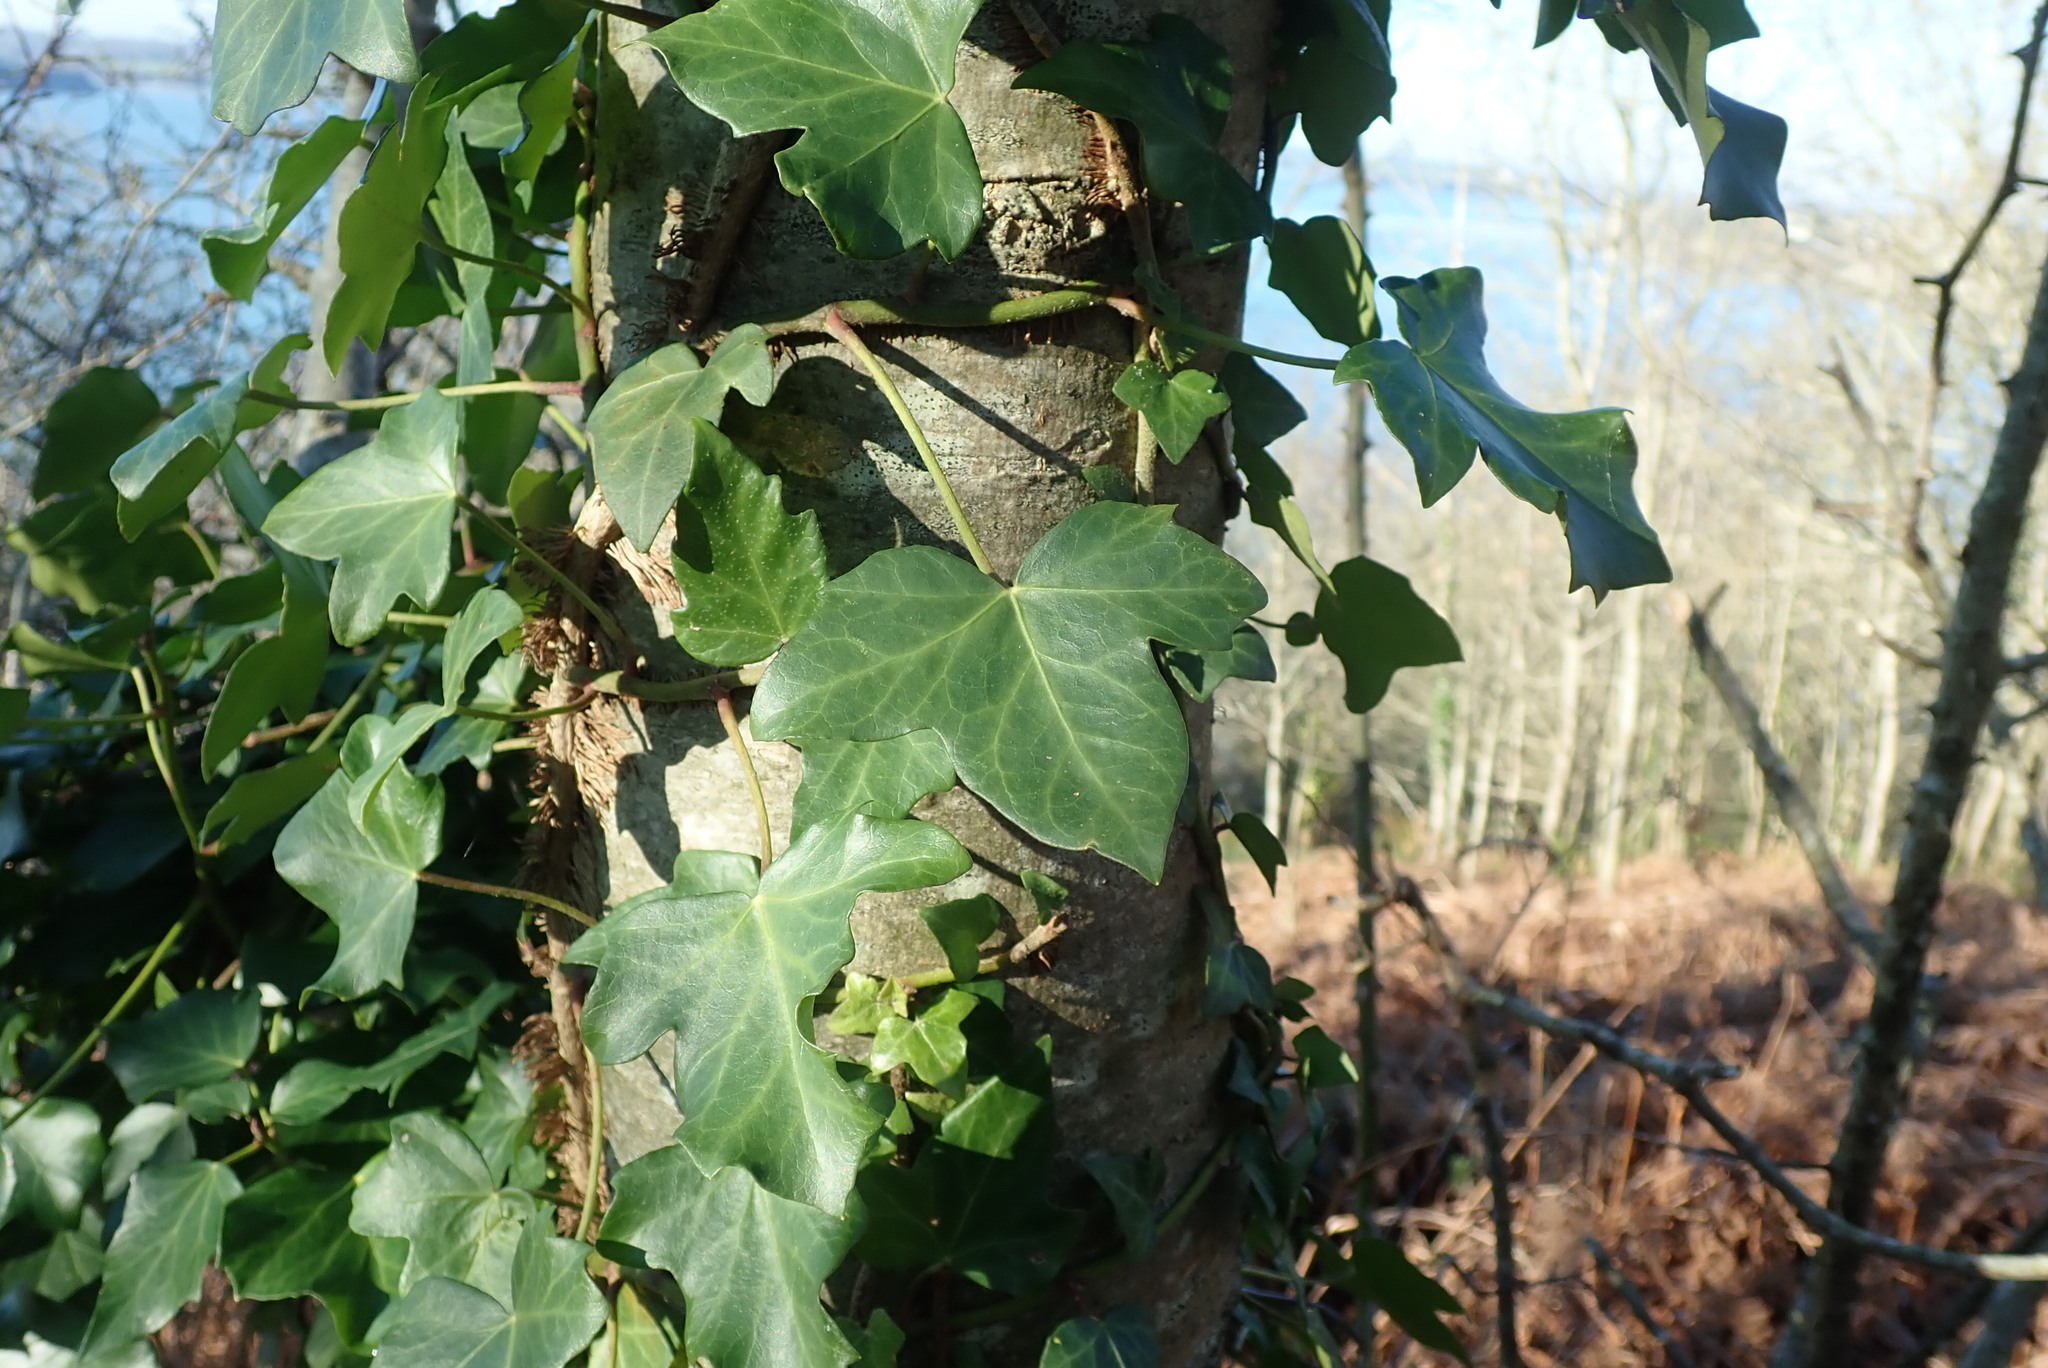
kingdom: Plantae
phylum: Tracheophyta
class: Magnoliopsida
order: Apiales
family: Araliaceae
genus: Hedera
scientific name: Hedera helix
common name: Ivy
